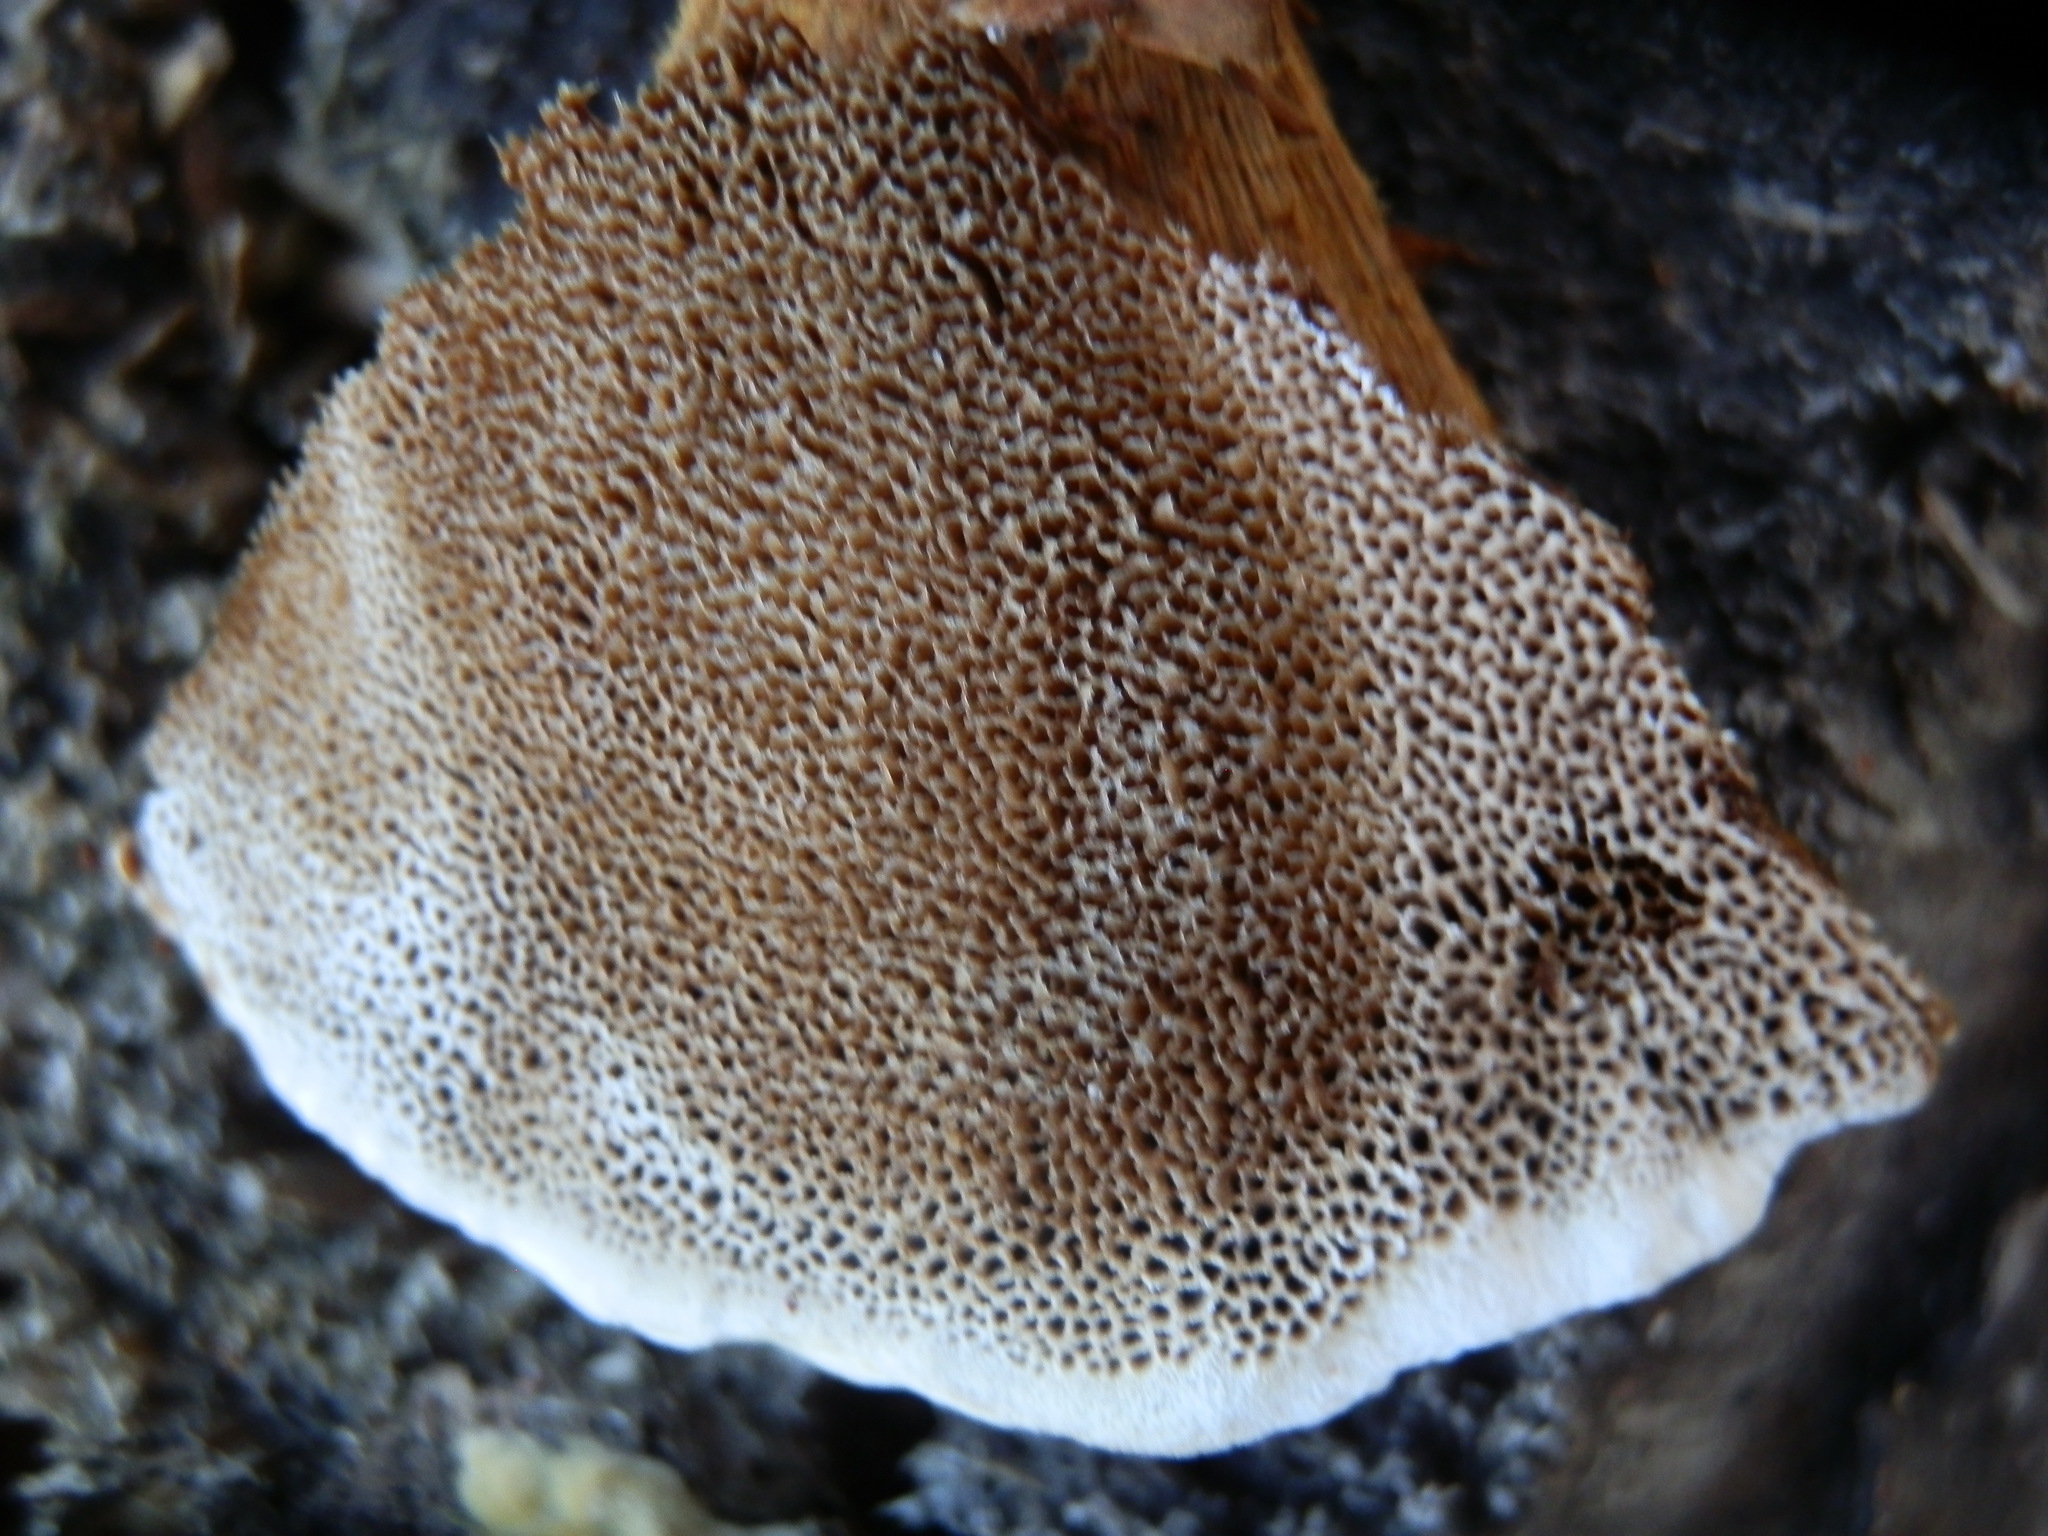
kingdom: Fungi
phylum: Basidiomycota
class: Agaricomycetes
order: Hymenochaetales
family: Hymenochaetaceae
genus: Onnia
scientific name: Onnia triquetra
